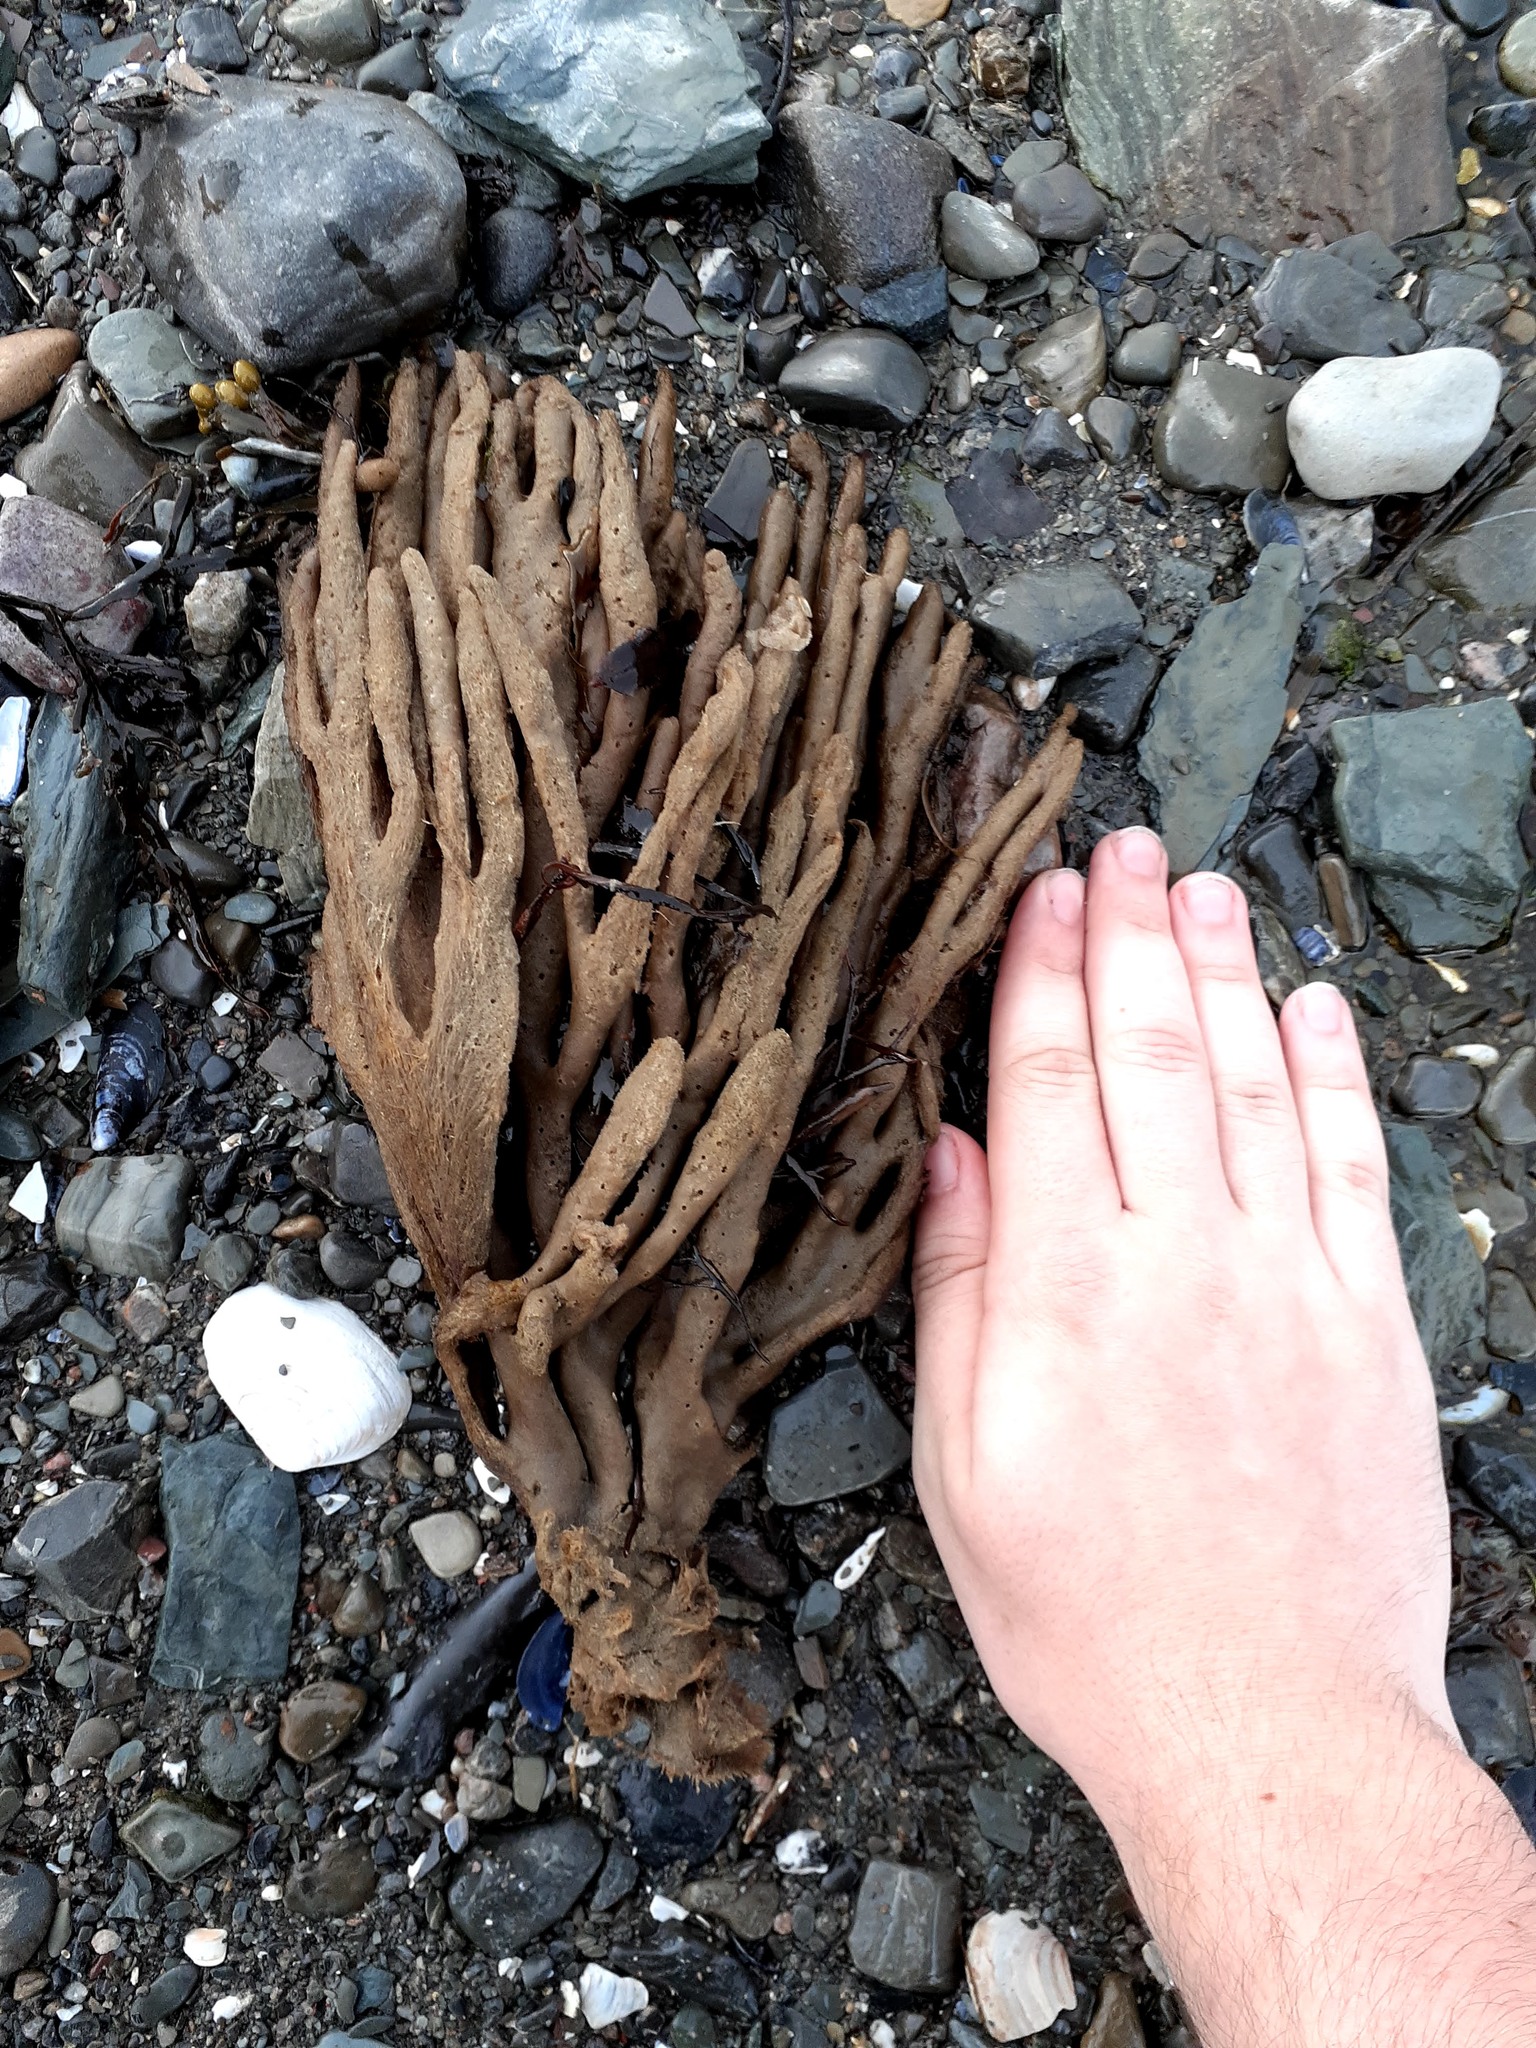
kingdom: Animalia
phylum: Porifera
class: Demospongiae
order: Haplosclerida
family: Chalinidae
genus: Haliclona
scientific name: Haliclona oculata
